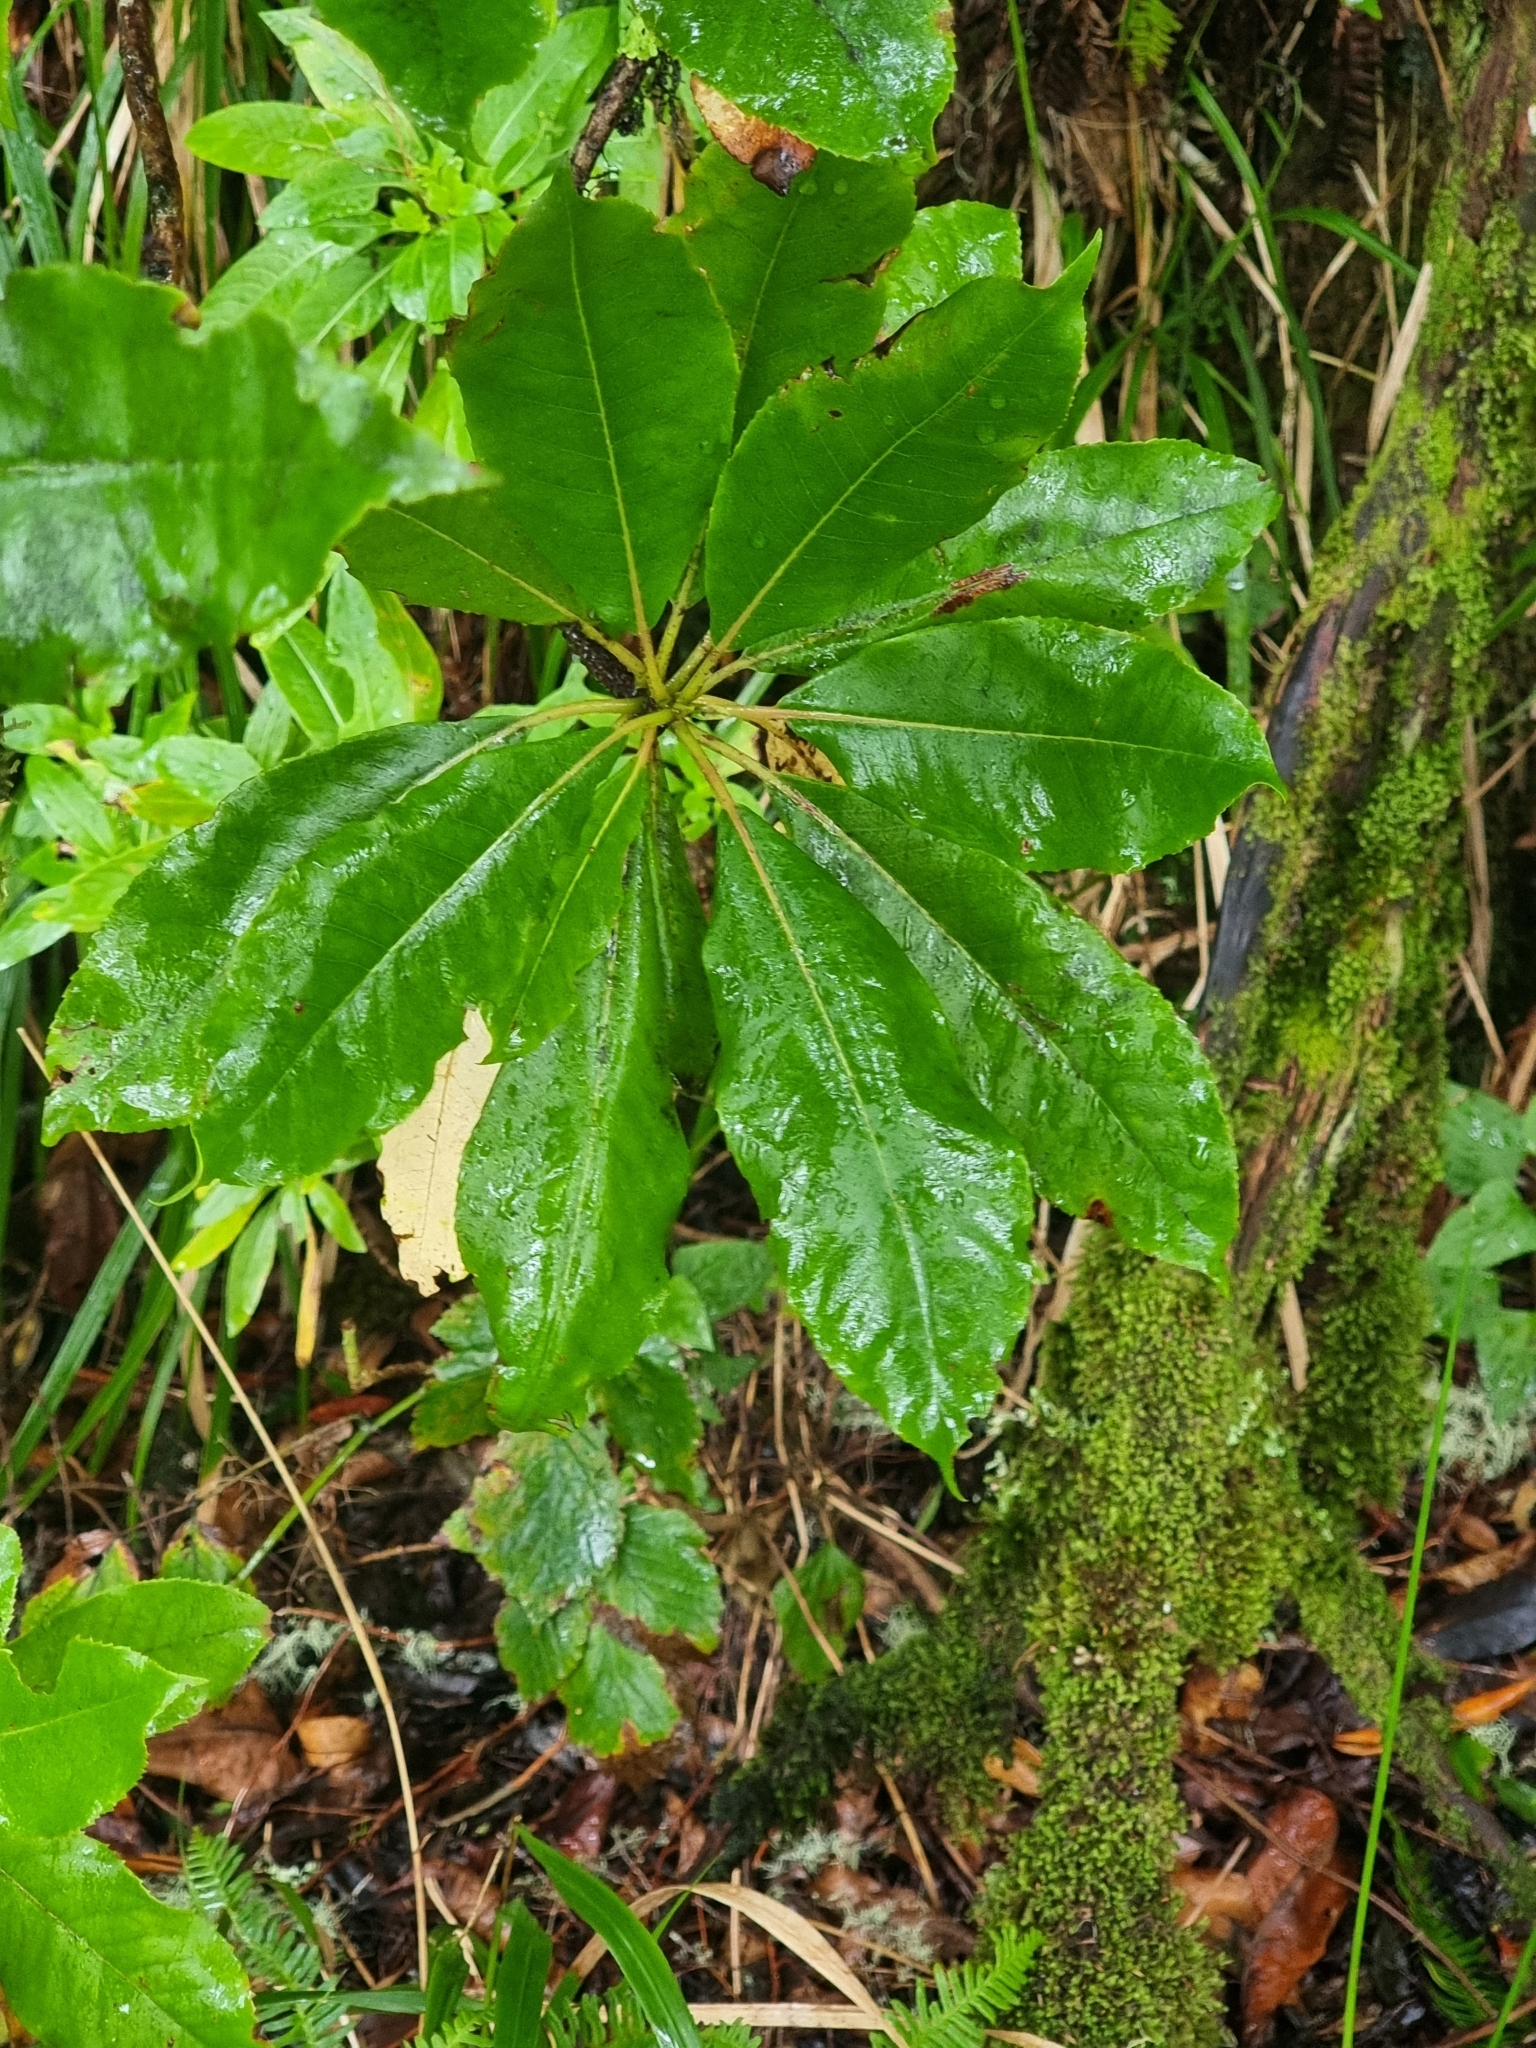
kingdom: Plantae
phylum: Tracheophyta
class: Magnoliopsida
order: Ericales
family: Clethraceae
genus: Clethra
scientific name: Clethra arborea
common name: Lily-of-the-valley-tree
